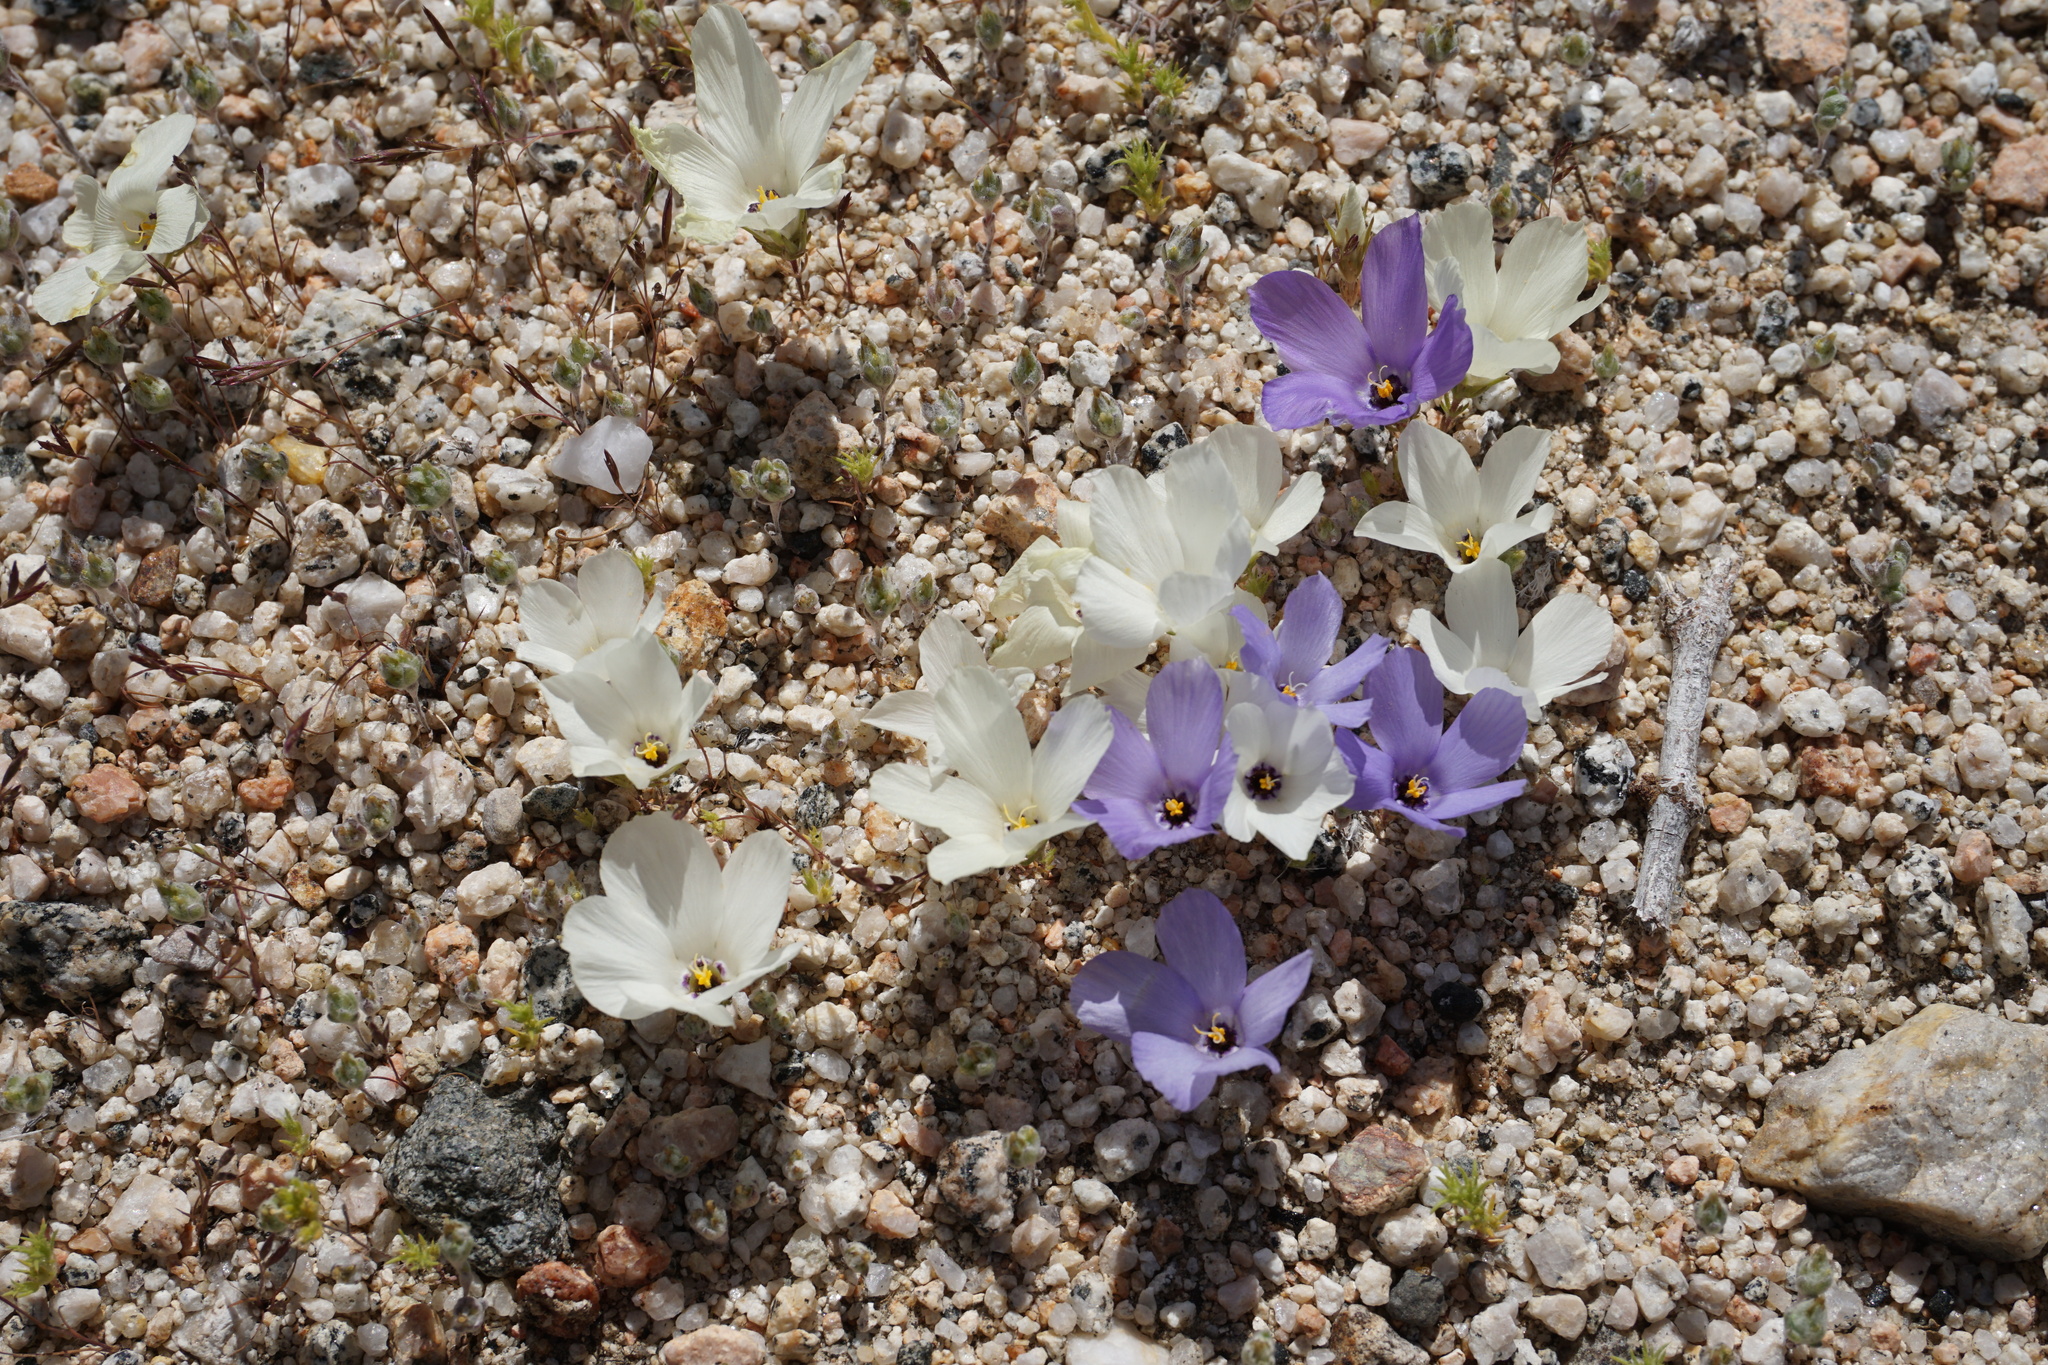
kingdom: Plantae
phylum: Tracheophyta
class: Magnoliopsida
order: Ericales
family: Polemoniaceae
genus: Linanthus
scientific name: Linanthus parryae
